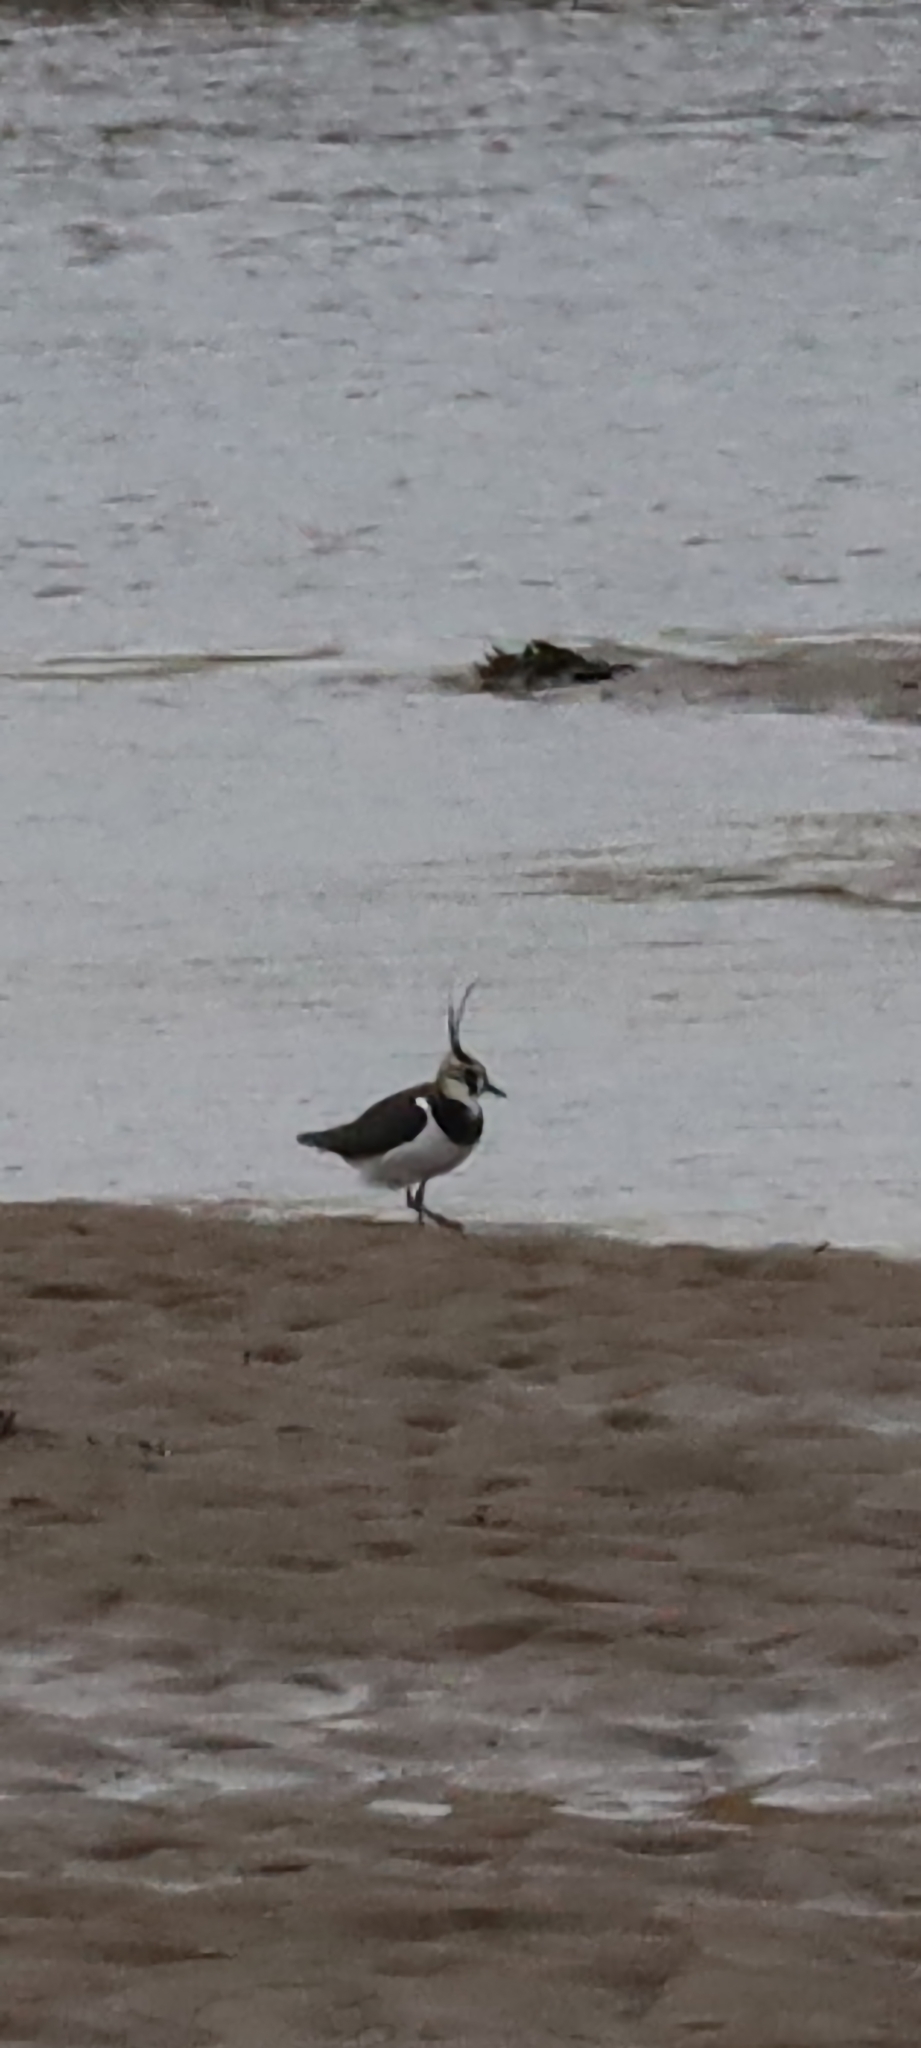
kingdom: Animalia
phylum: Chordata
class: Aves
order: Charadriiformes
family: Charadriidae
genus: Vanellus
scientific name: Vanellus vanellus
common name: Northern lapwing
